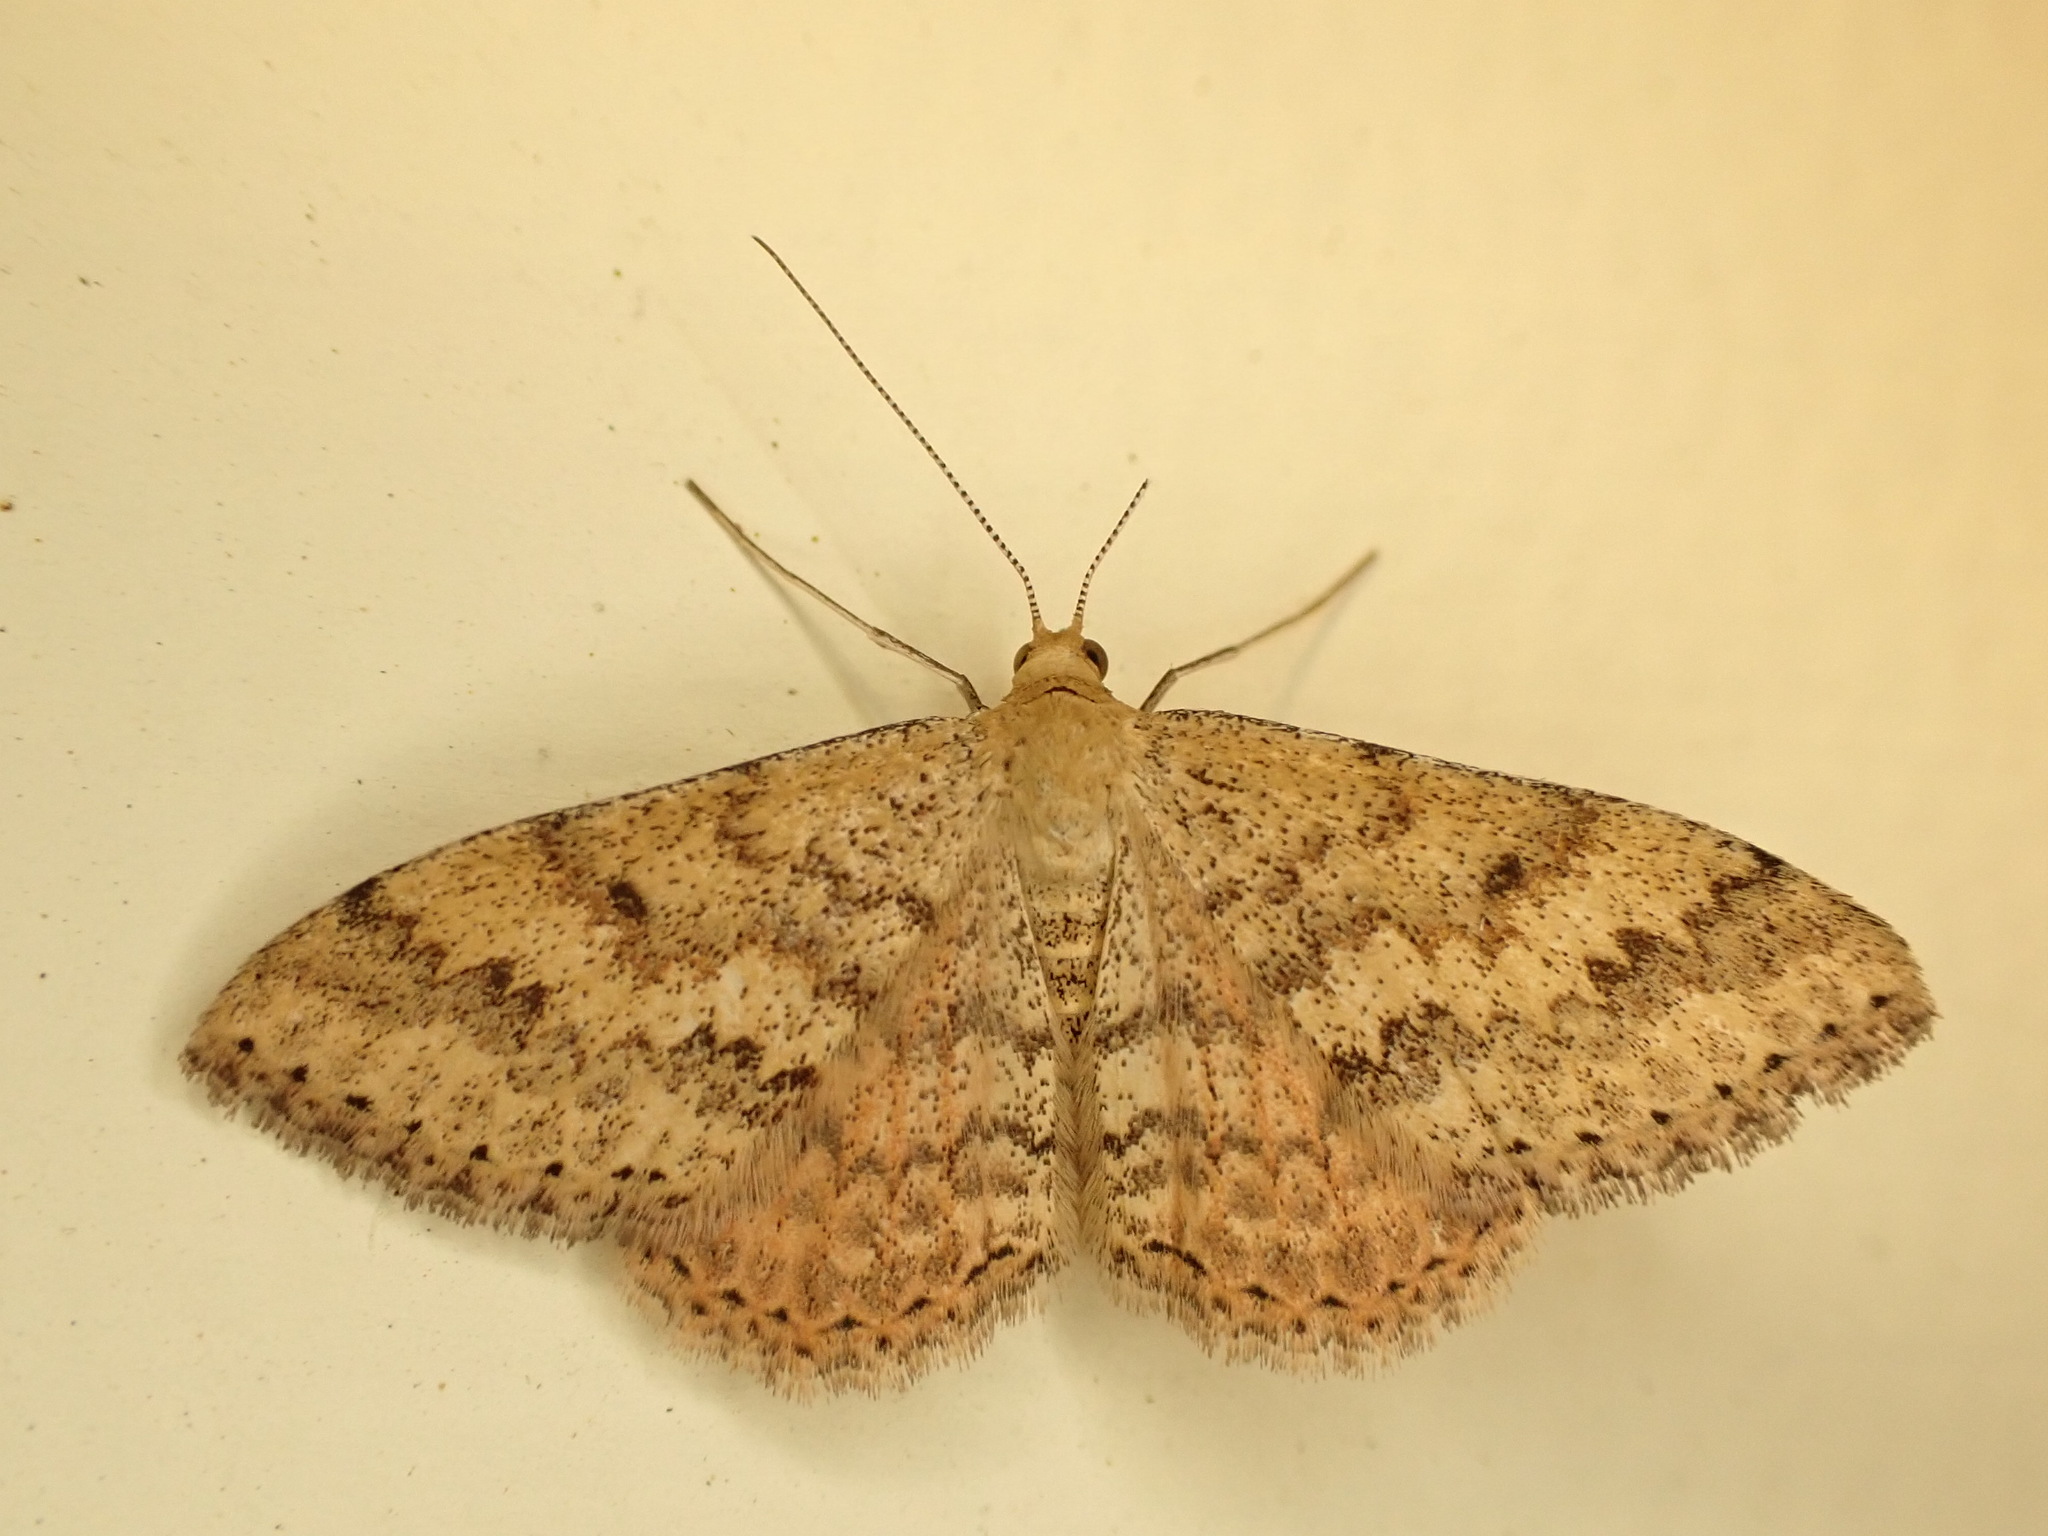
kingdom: Animalia
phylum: Arthropoda
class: Insecta
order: Lepidoptera
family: Geometridae
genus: Scopula
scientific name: Scopula rubraria
